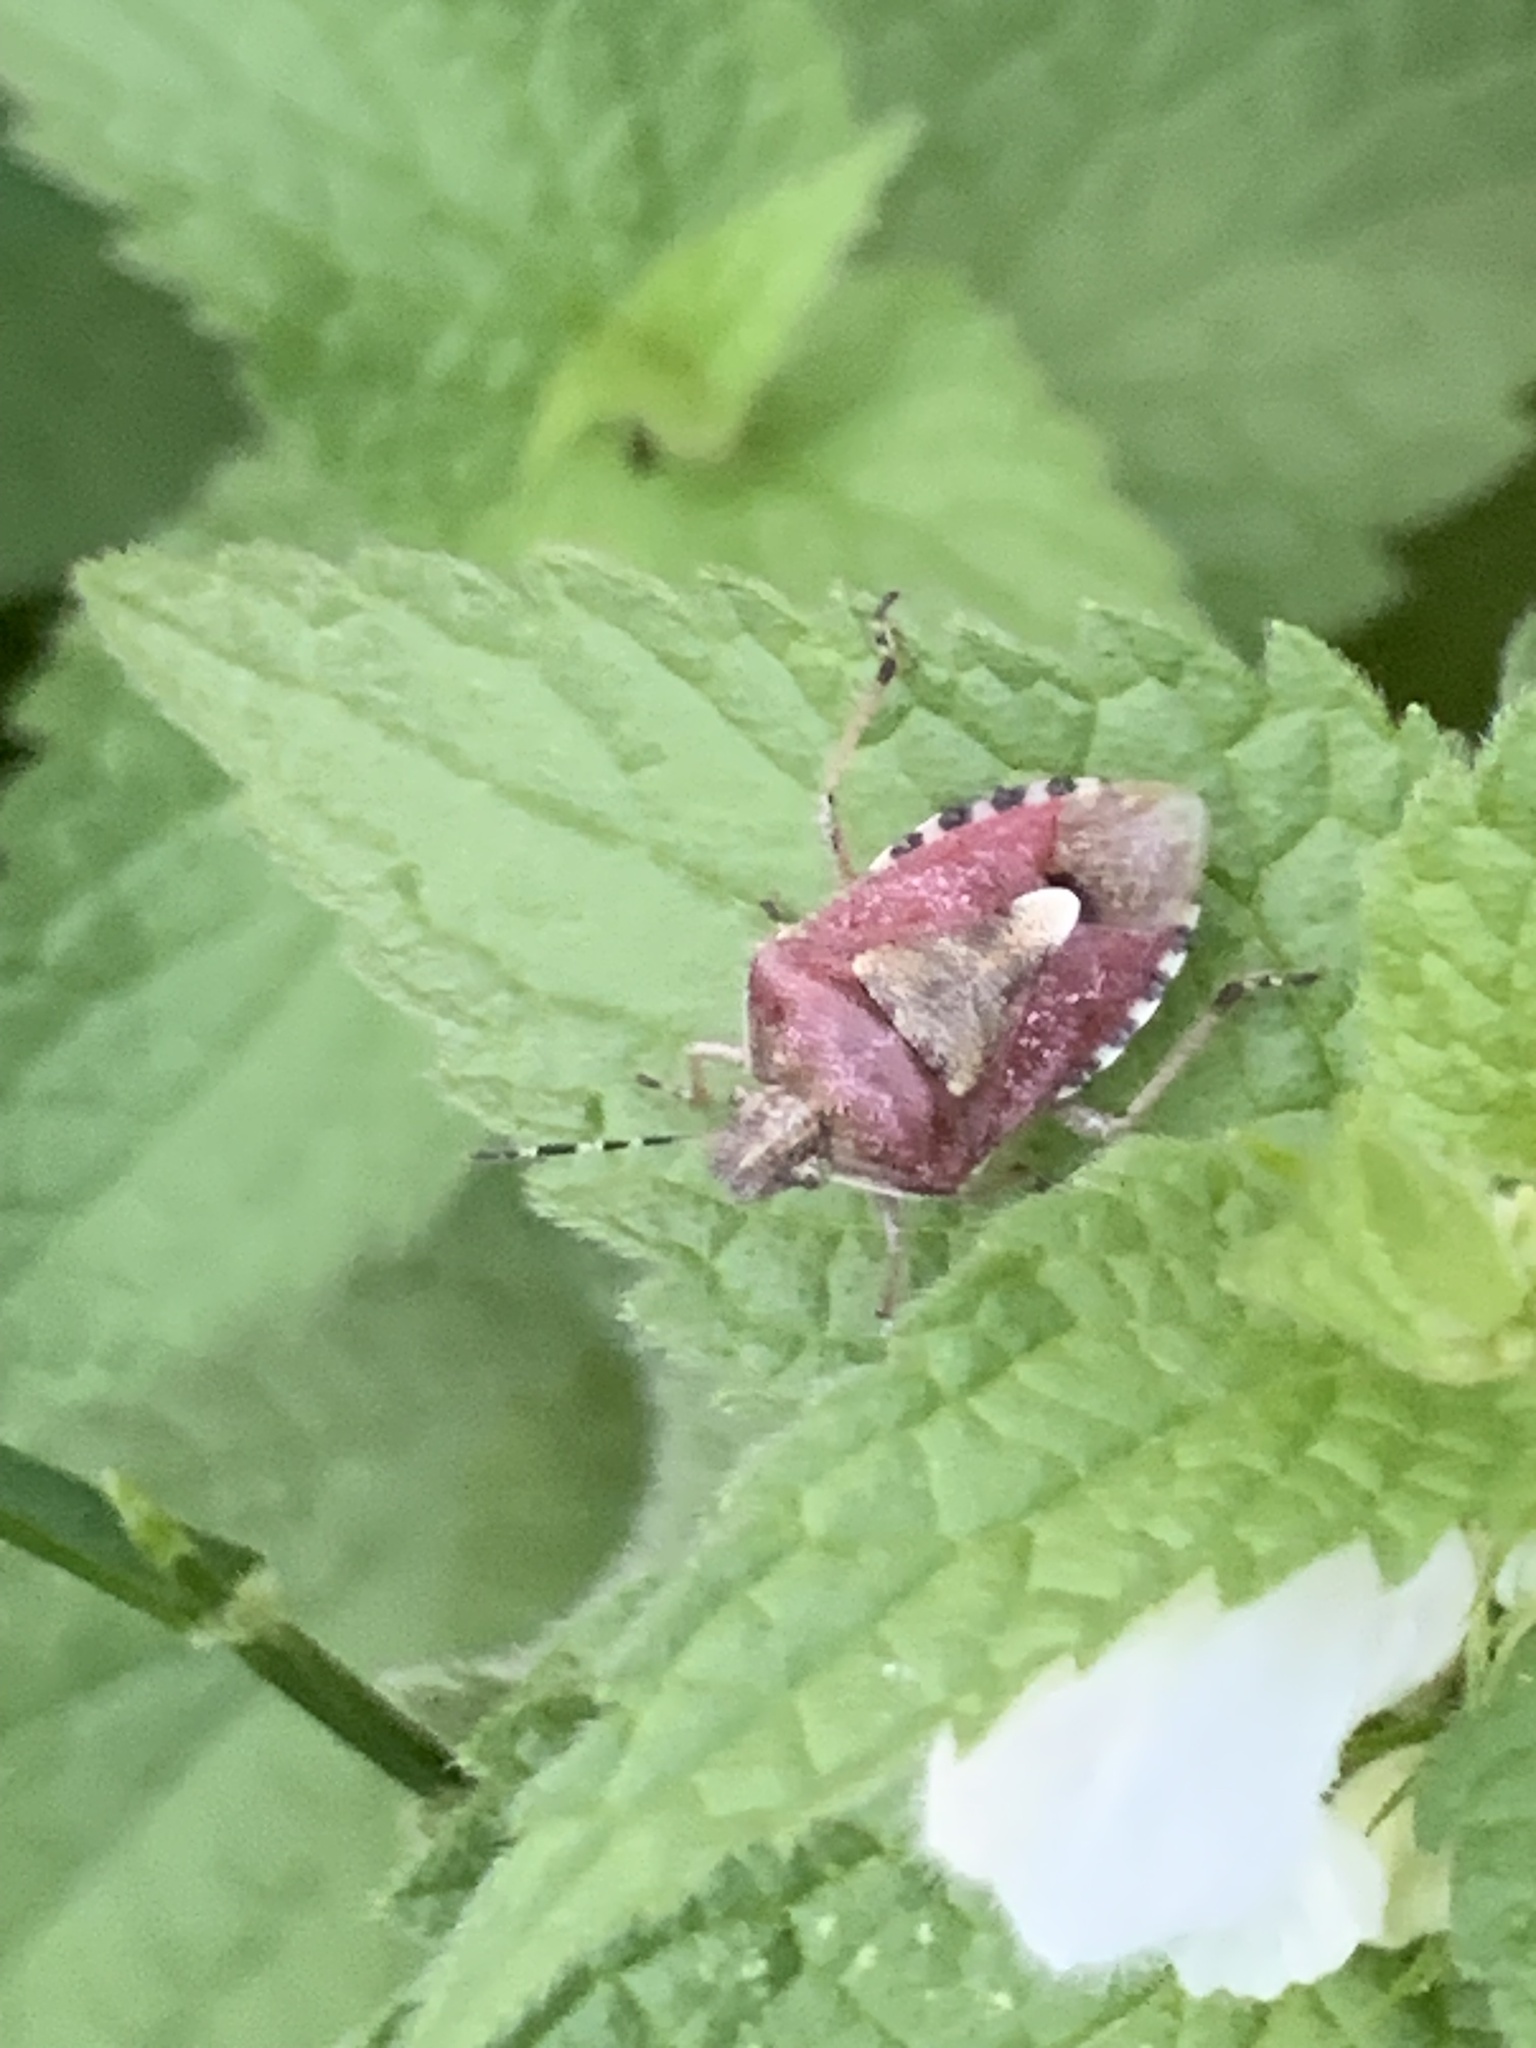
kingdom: Animalia
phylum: Arthropoda
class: Insecta
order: Hemiptera
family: Pentatomidae
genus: Dolycoris
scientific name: Dolycoris baccarum
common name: Sloe bug
